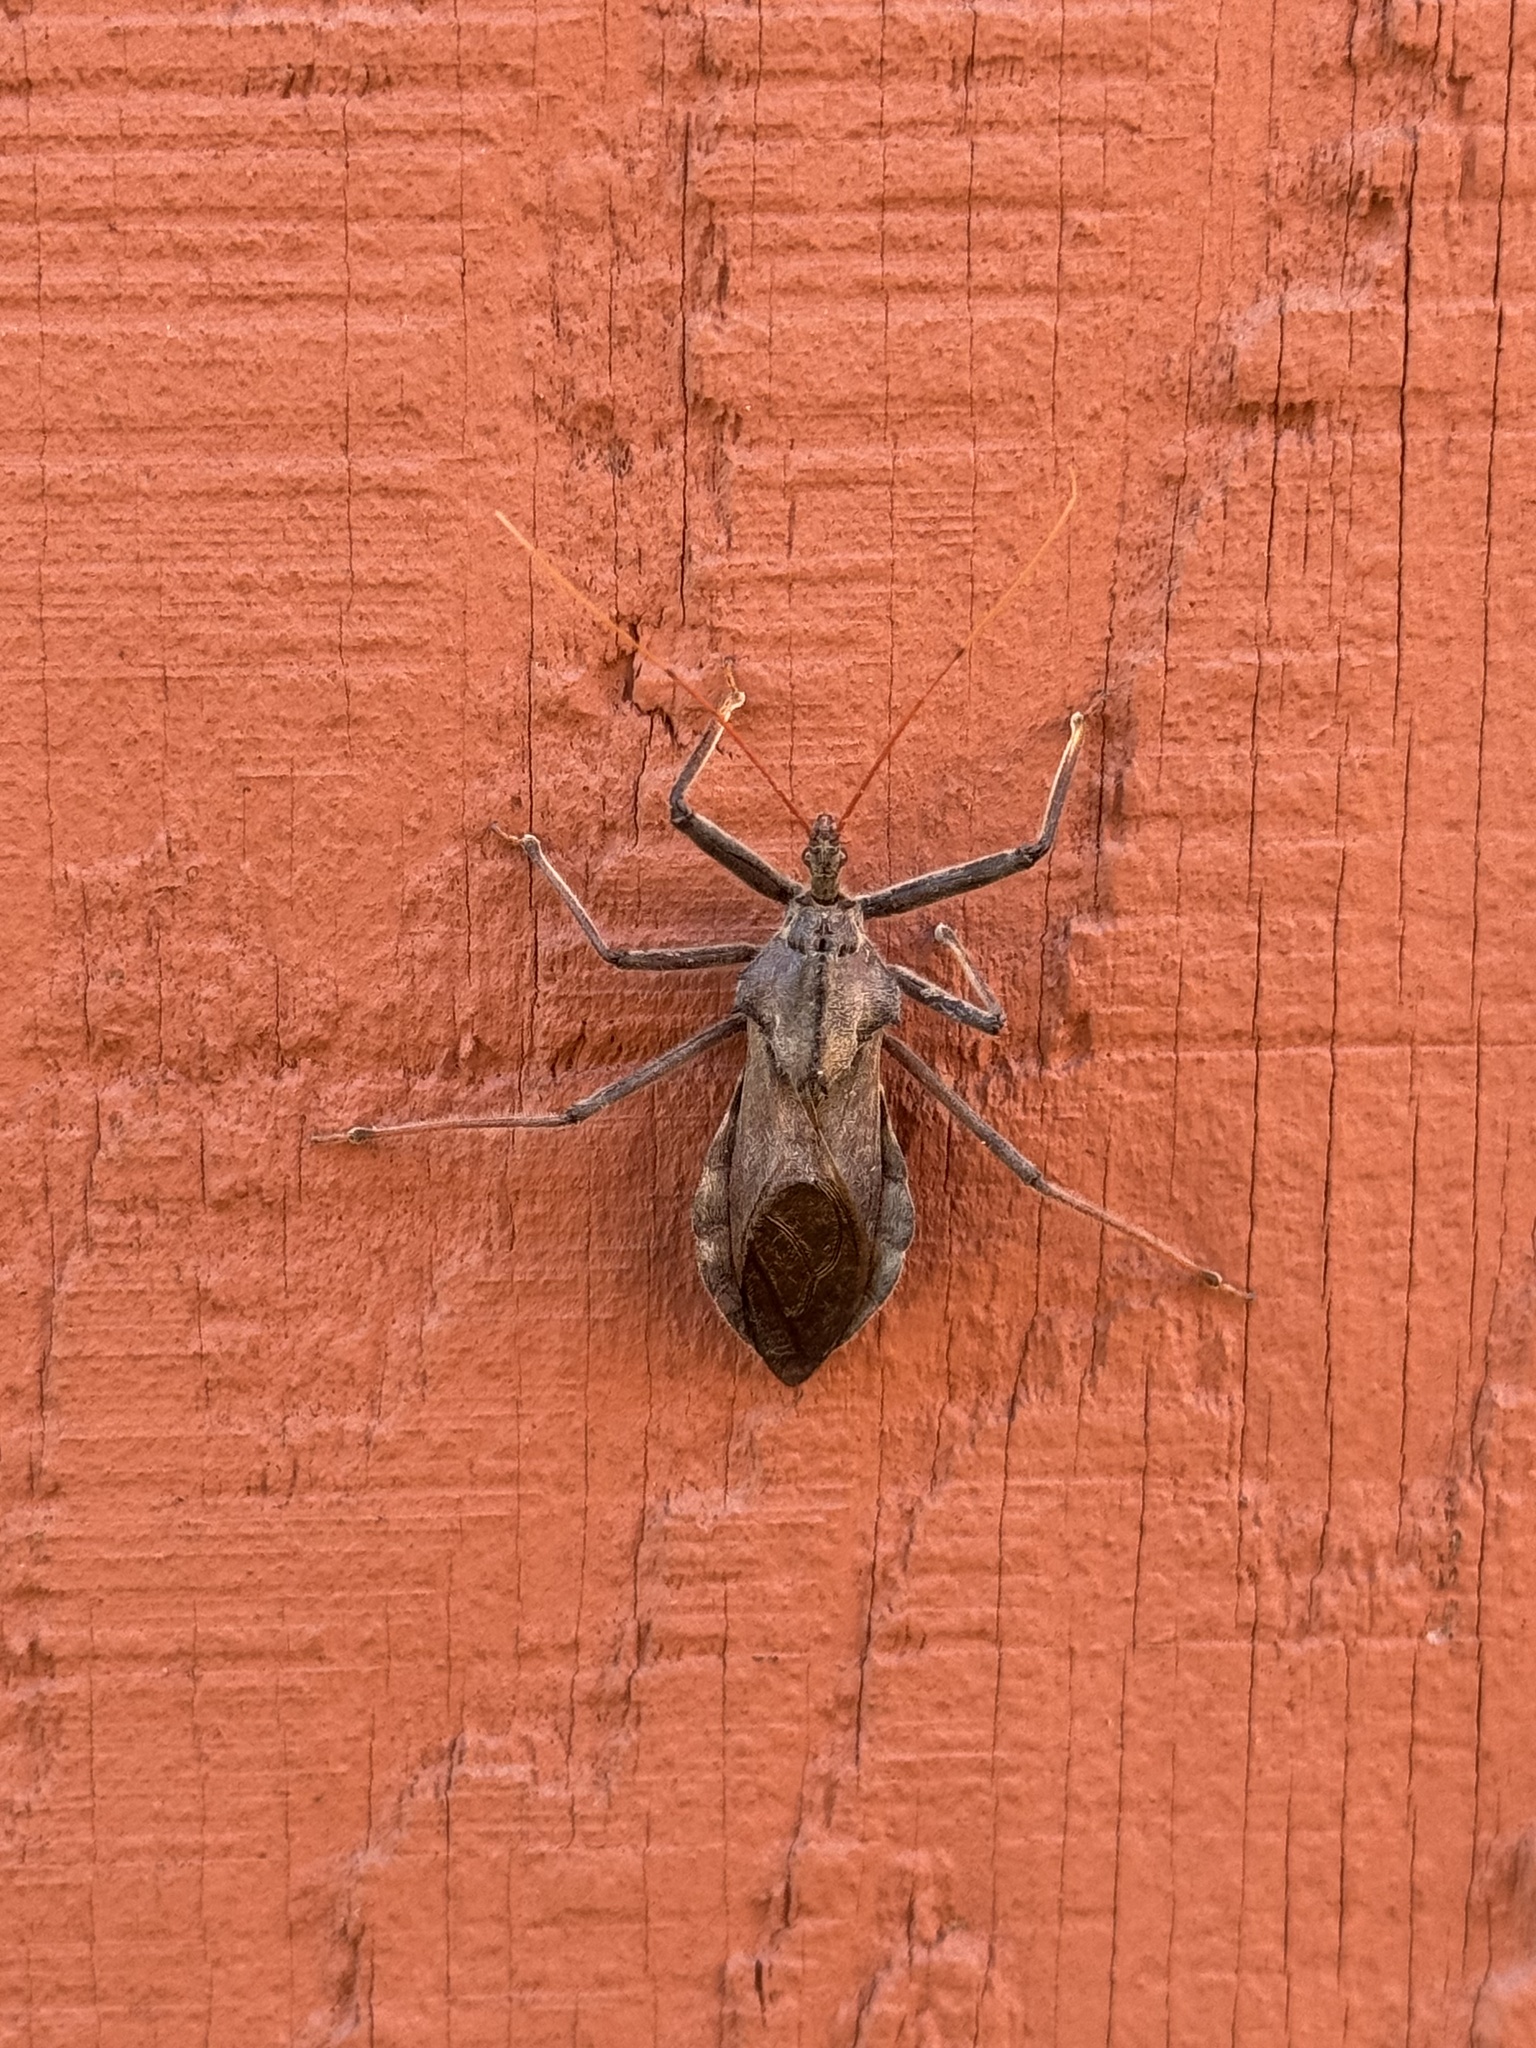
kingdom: Animalia
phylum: Arthropoda
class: Insecta
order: Hemiptera
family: Reduviidae
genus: Arilus
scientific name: Arilus cristatus
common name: North american wheel bug
